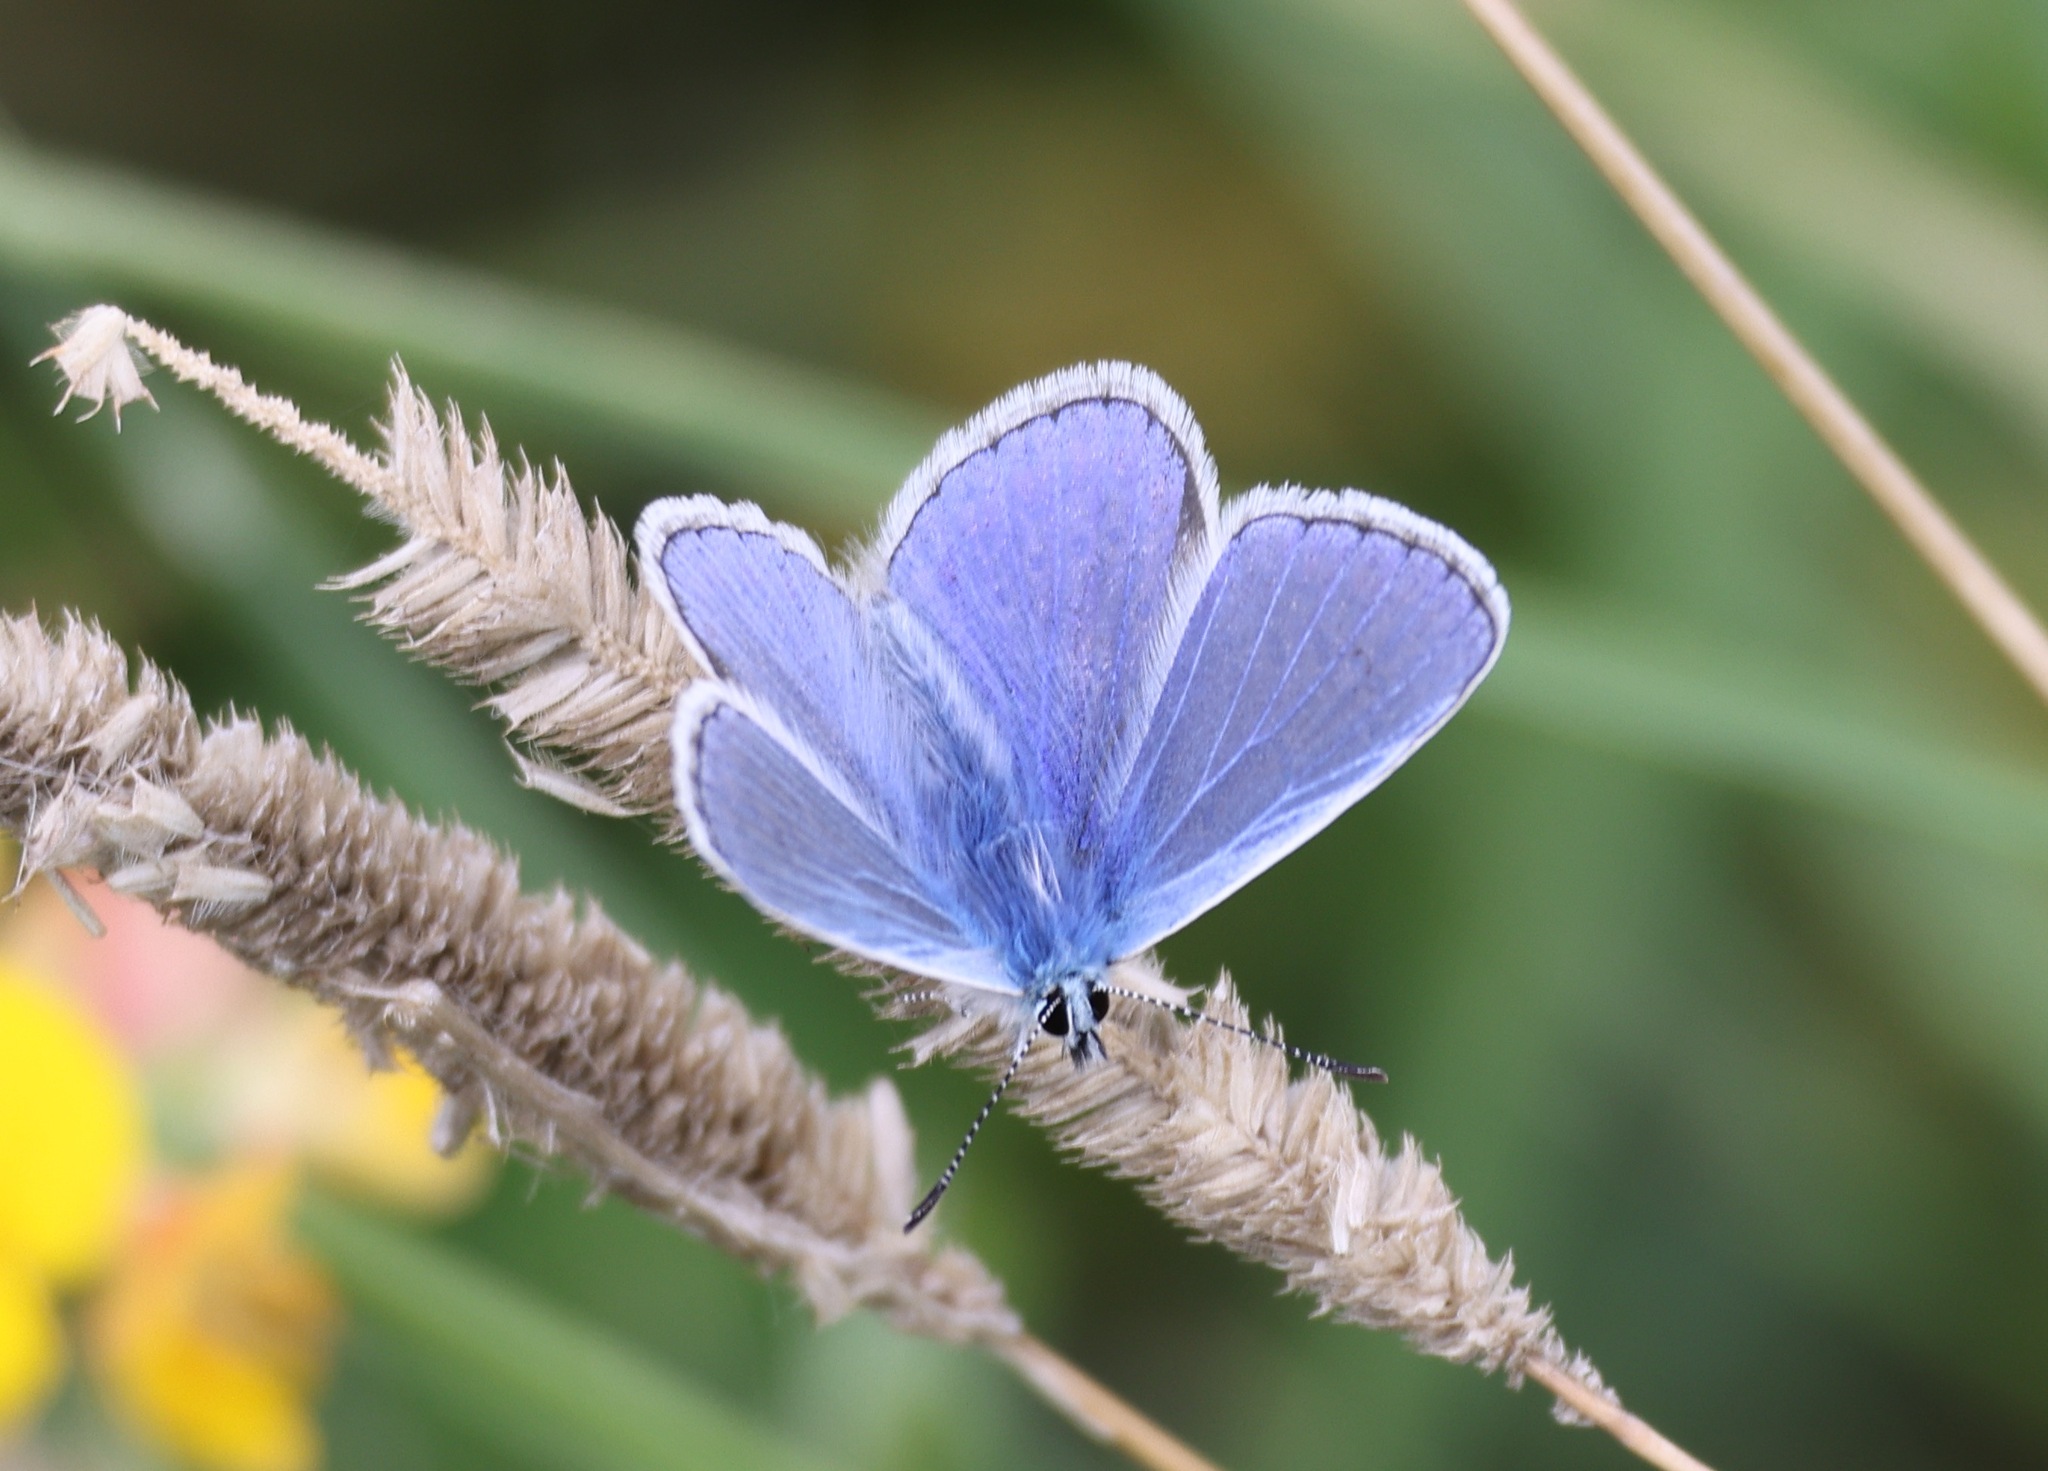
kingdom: Animalia
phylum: Arthropoda
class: Insecta
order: Lepidoptera
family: Lycaenidae
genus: Polyommatus
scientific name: Polyommatus icarus
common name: Common blue
